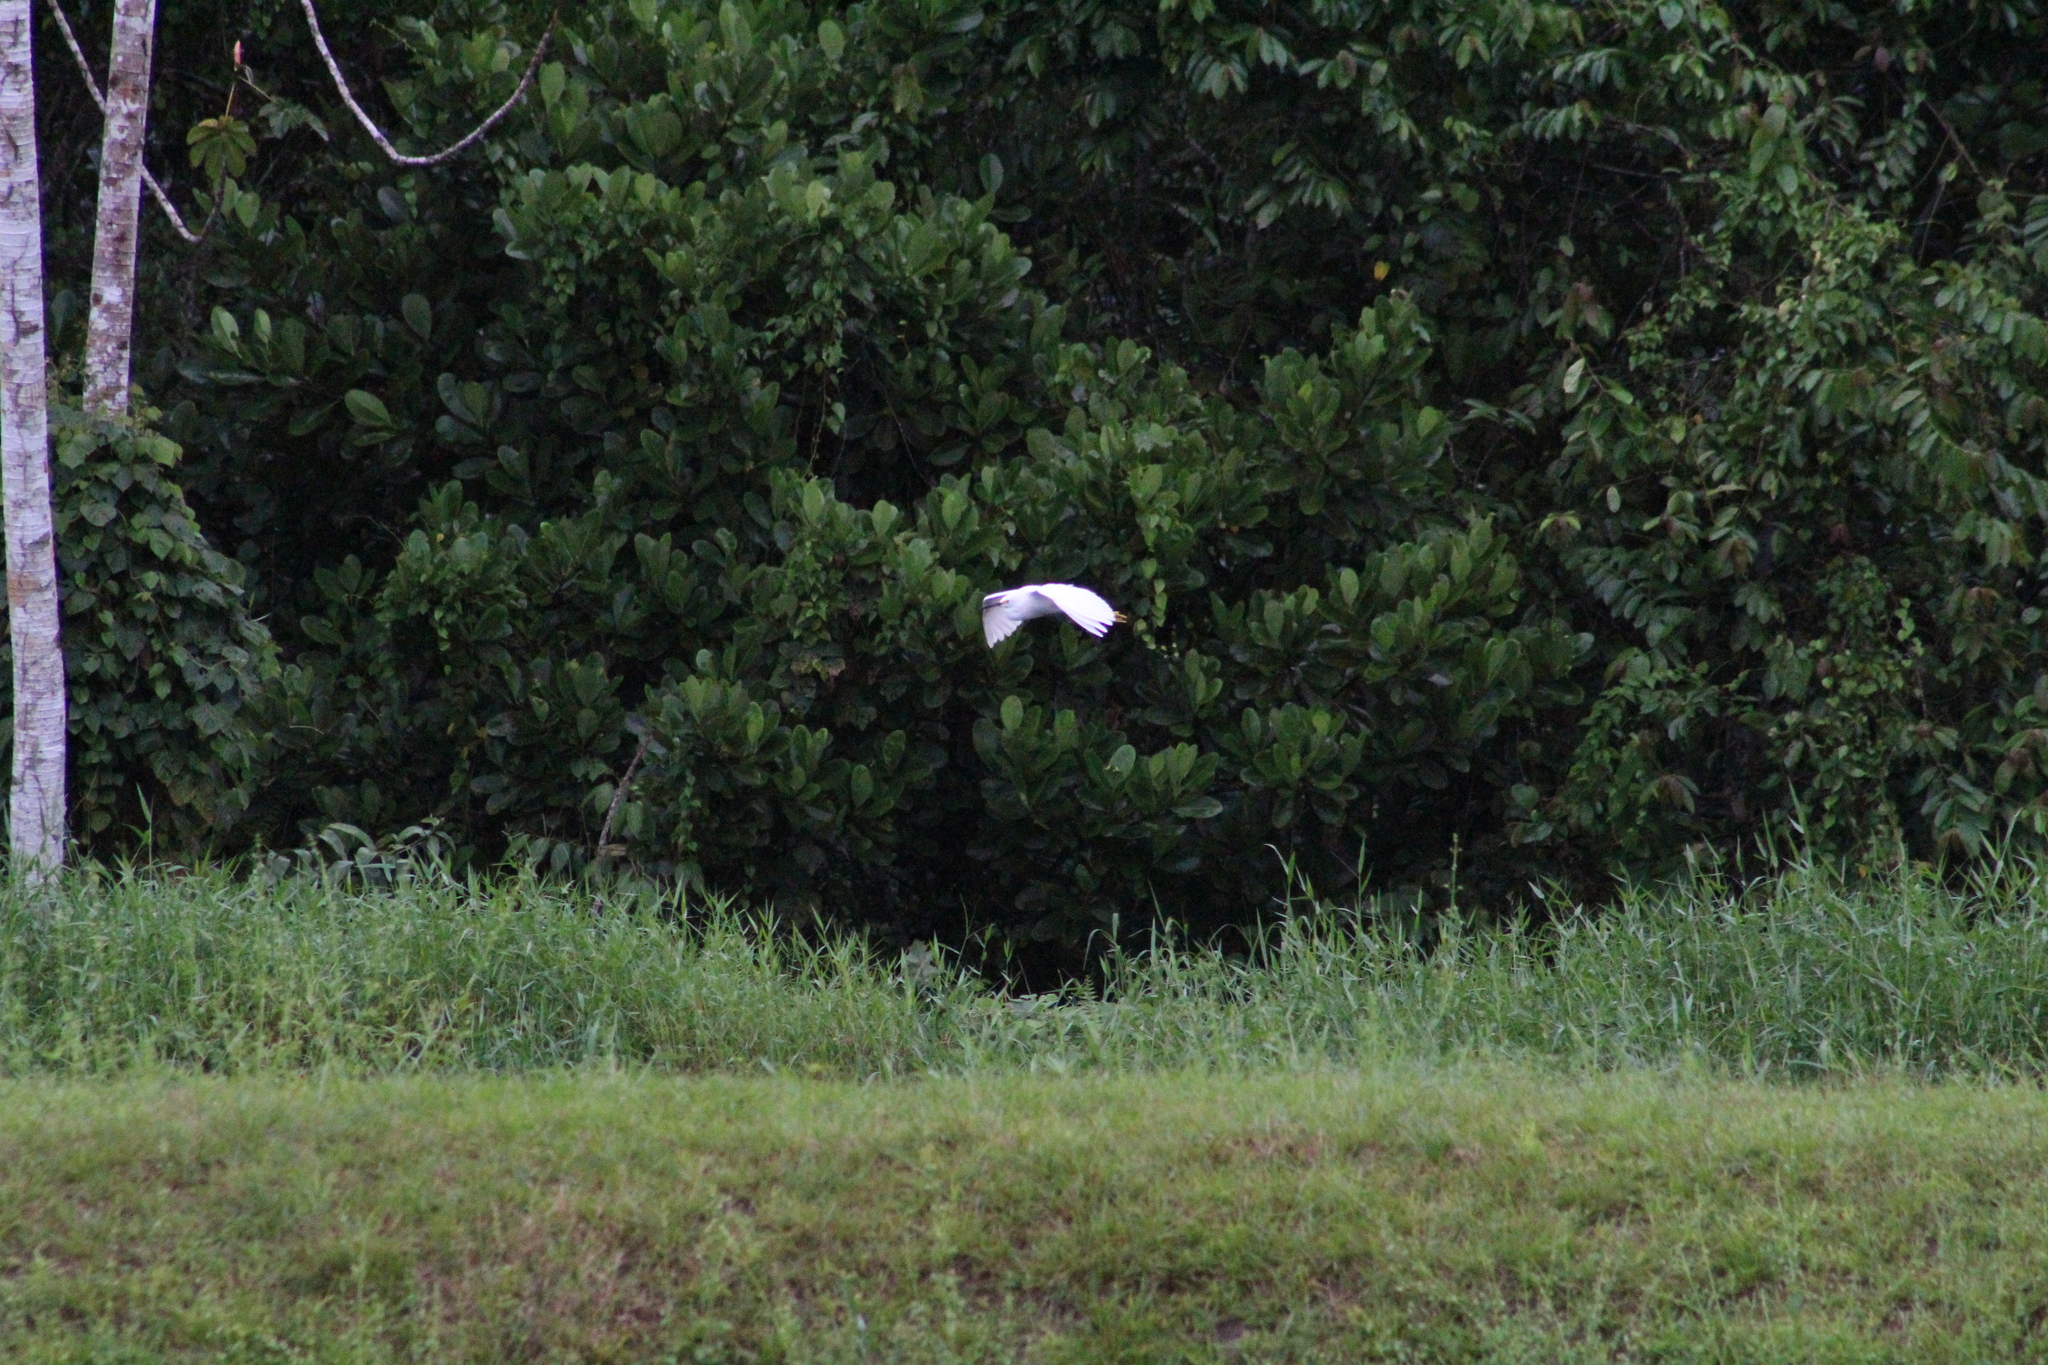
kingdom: Animalia
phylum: Chordata
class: Aves
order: Pelecaniformes
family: Ardeidae
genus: Egretta
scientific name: Egretta thula
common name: Snowy egret
